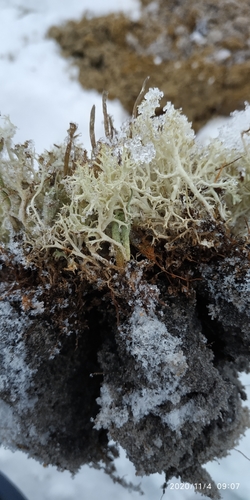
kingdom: Fungi
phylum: Ascomycota
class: Lecanoromycetes
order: Lecanorales
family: Cladoniaceae
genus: Cladonia
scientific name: Cladonia portentosa
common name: Reindeer lichen
